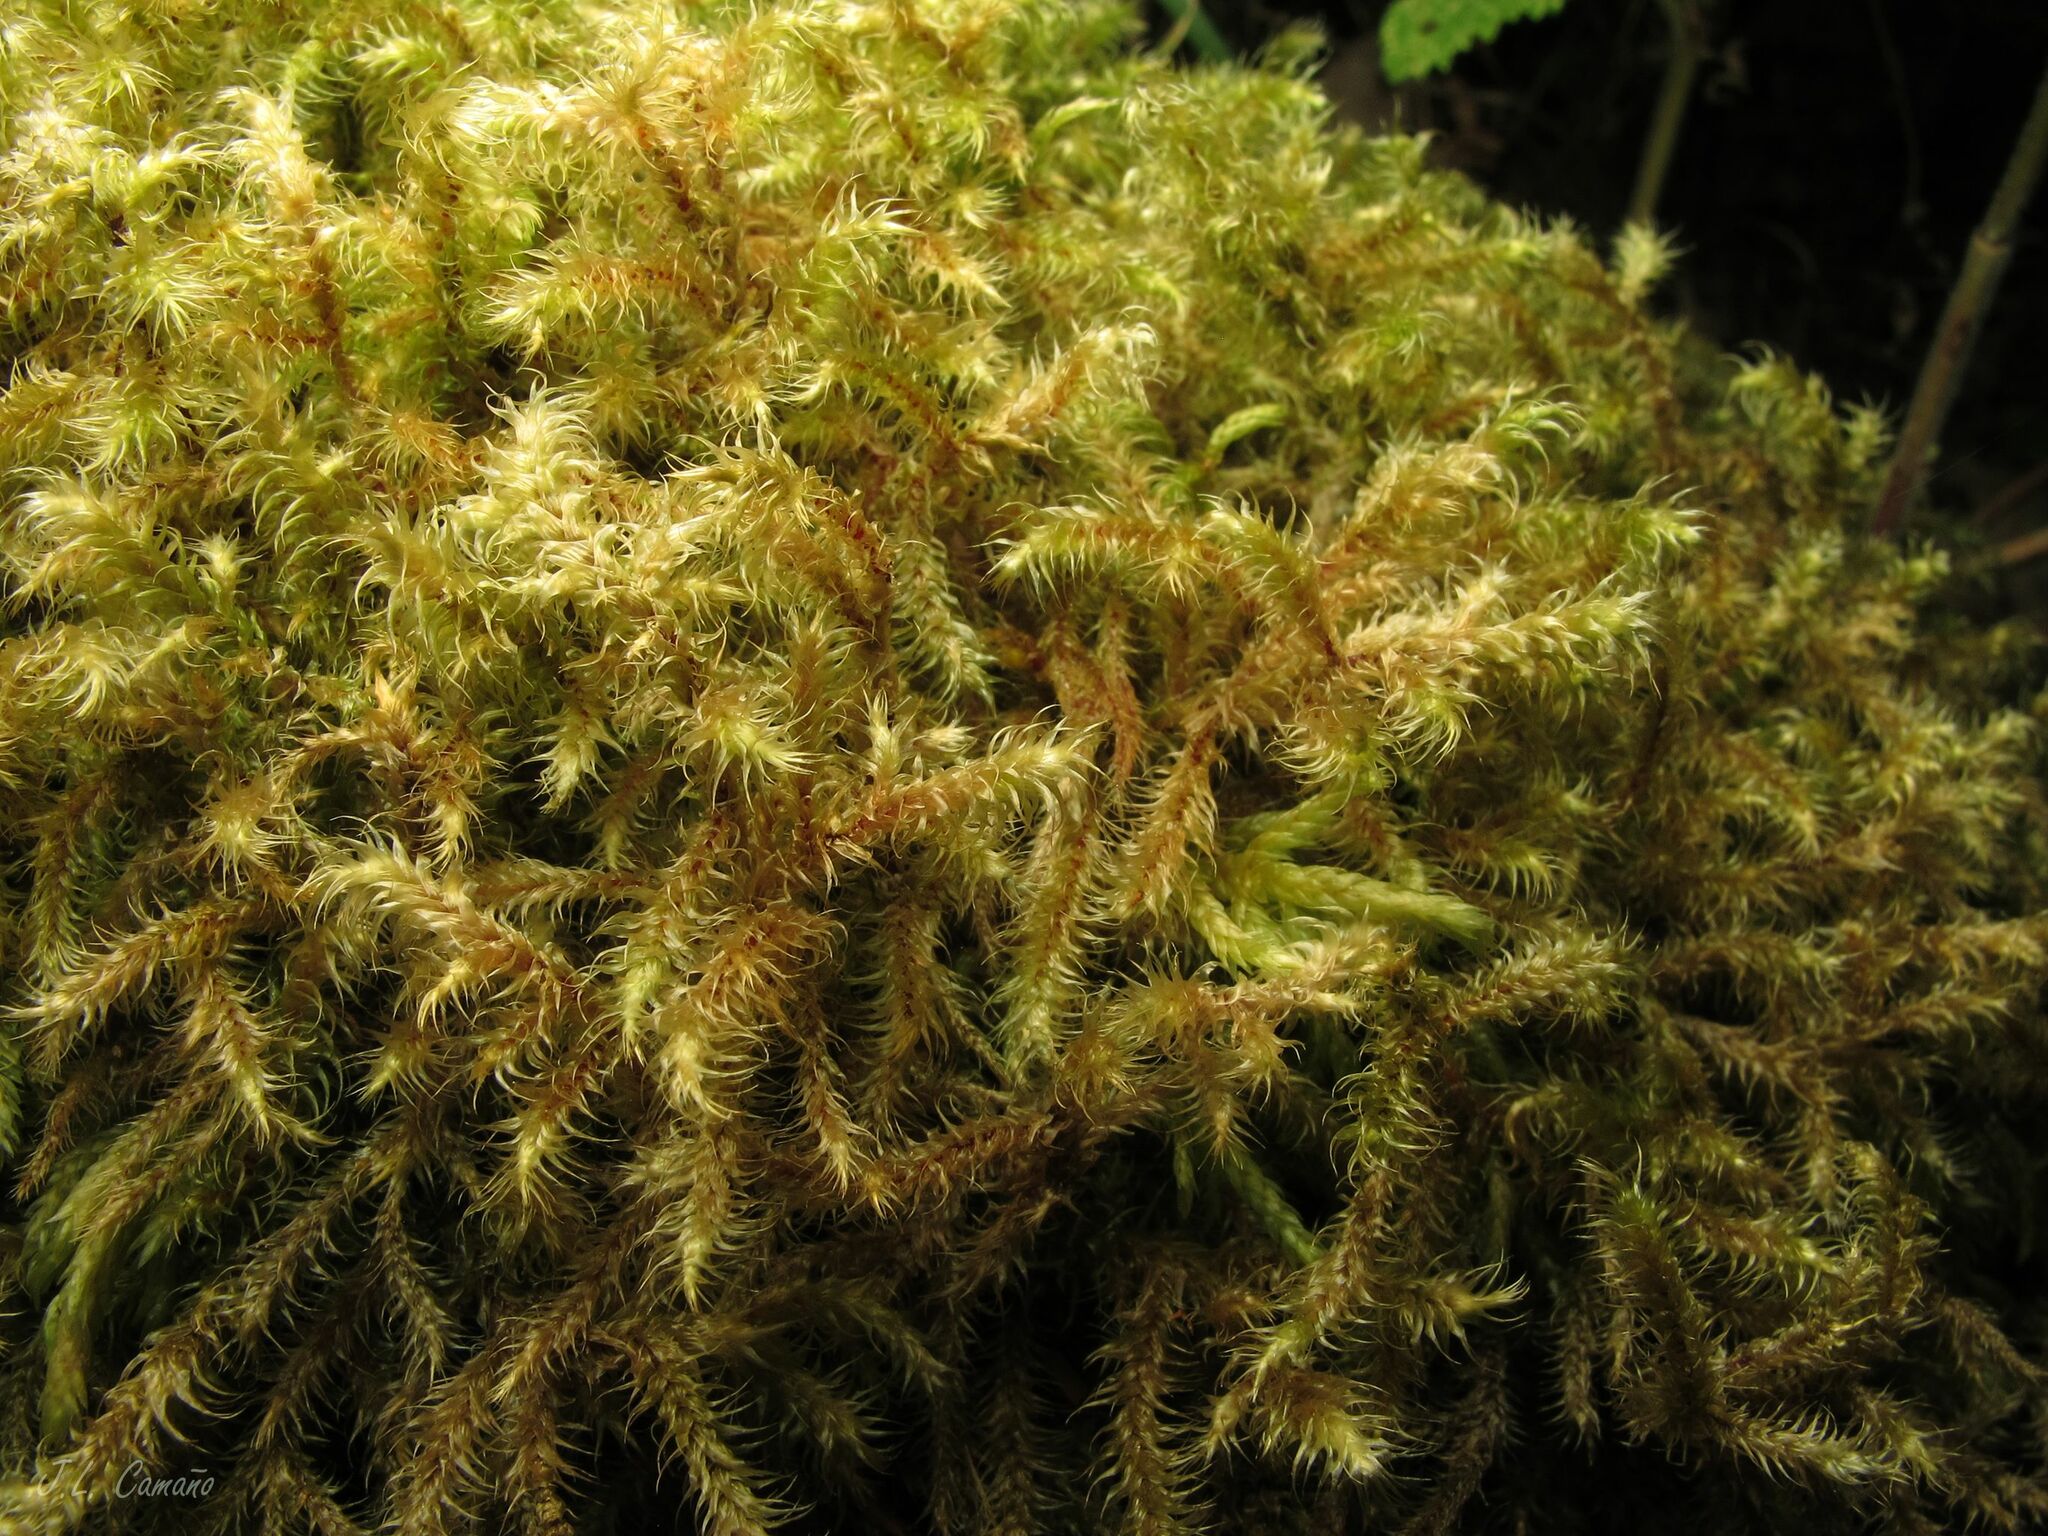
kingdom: Plantae
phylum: Bryophyta
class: Bryopsida
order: Hypnales
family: Hylocomiaceae
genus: Rhytidiadelphus
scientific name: Rhytidiadelphus loreus
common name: Lanky moss
